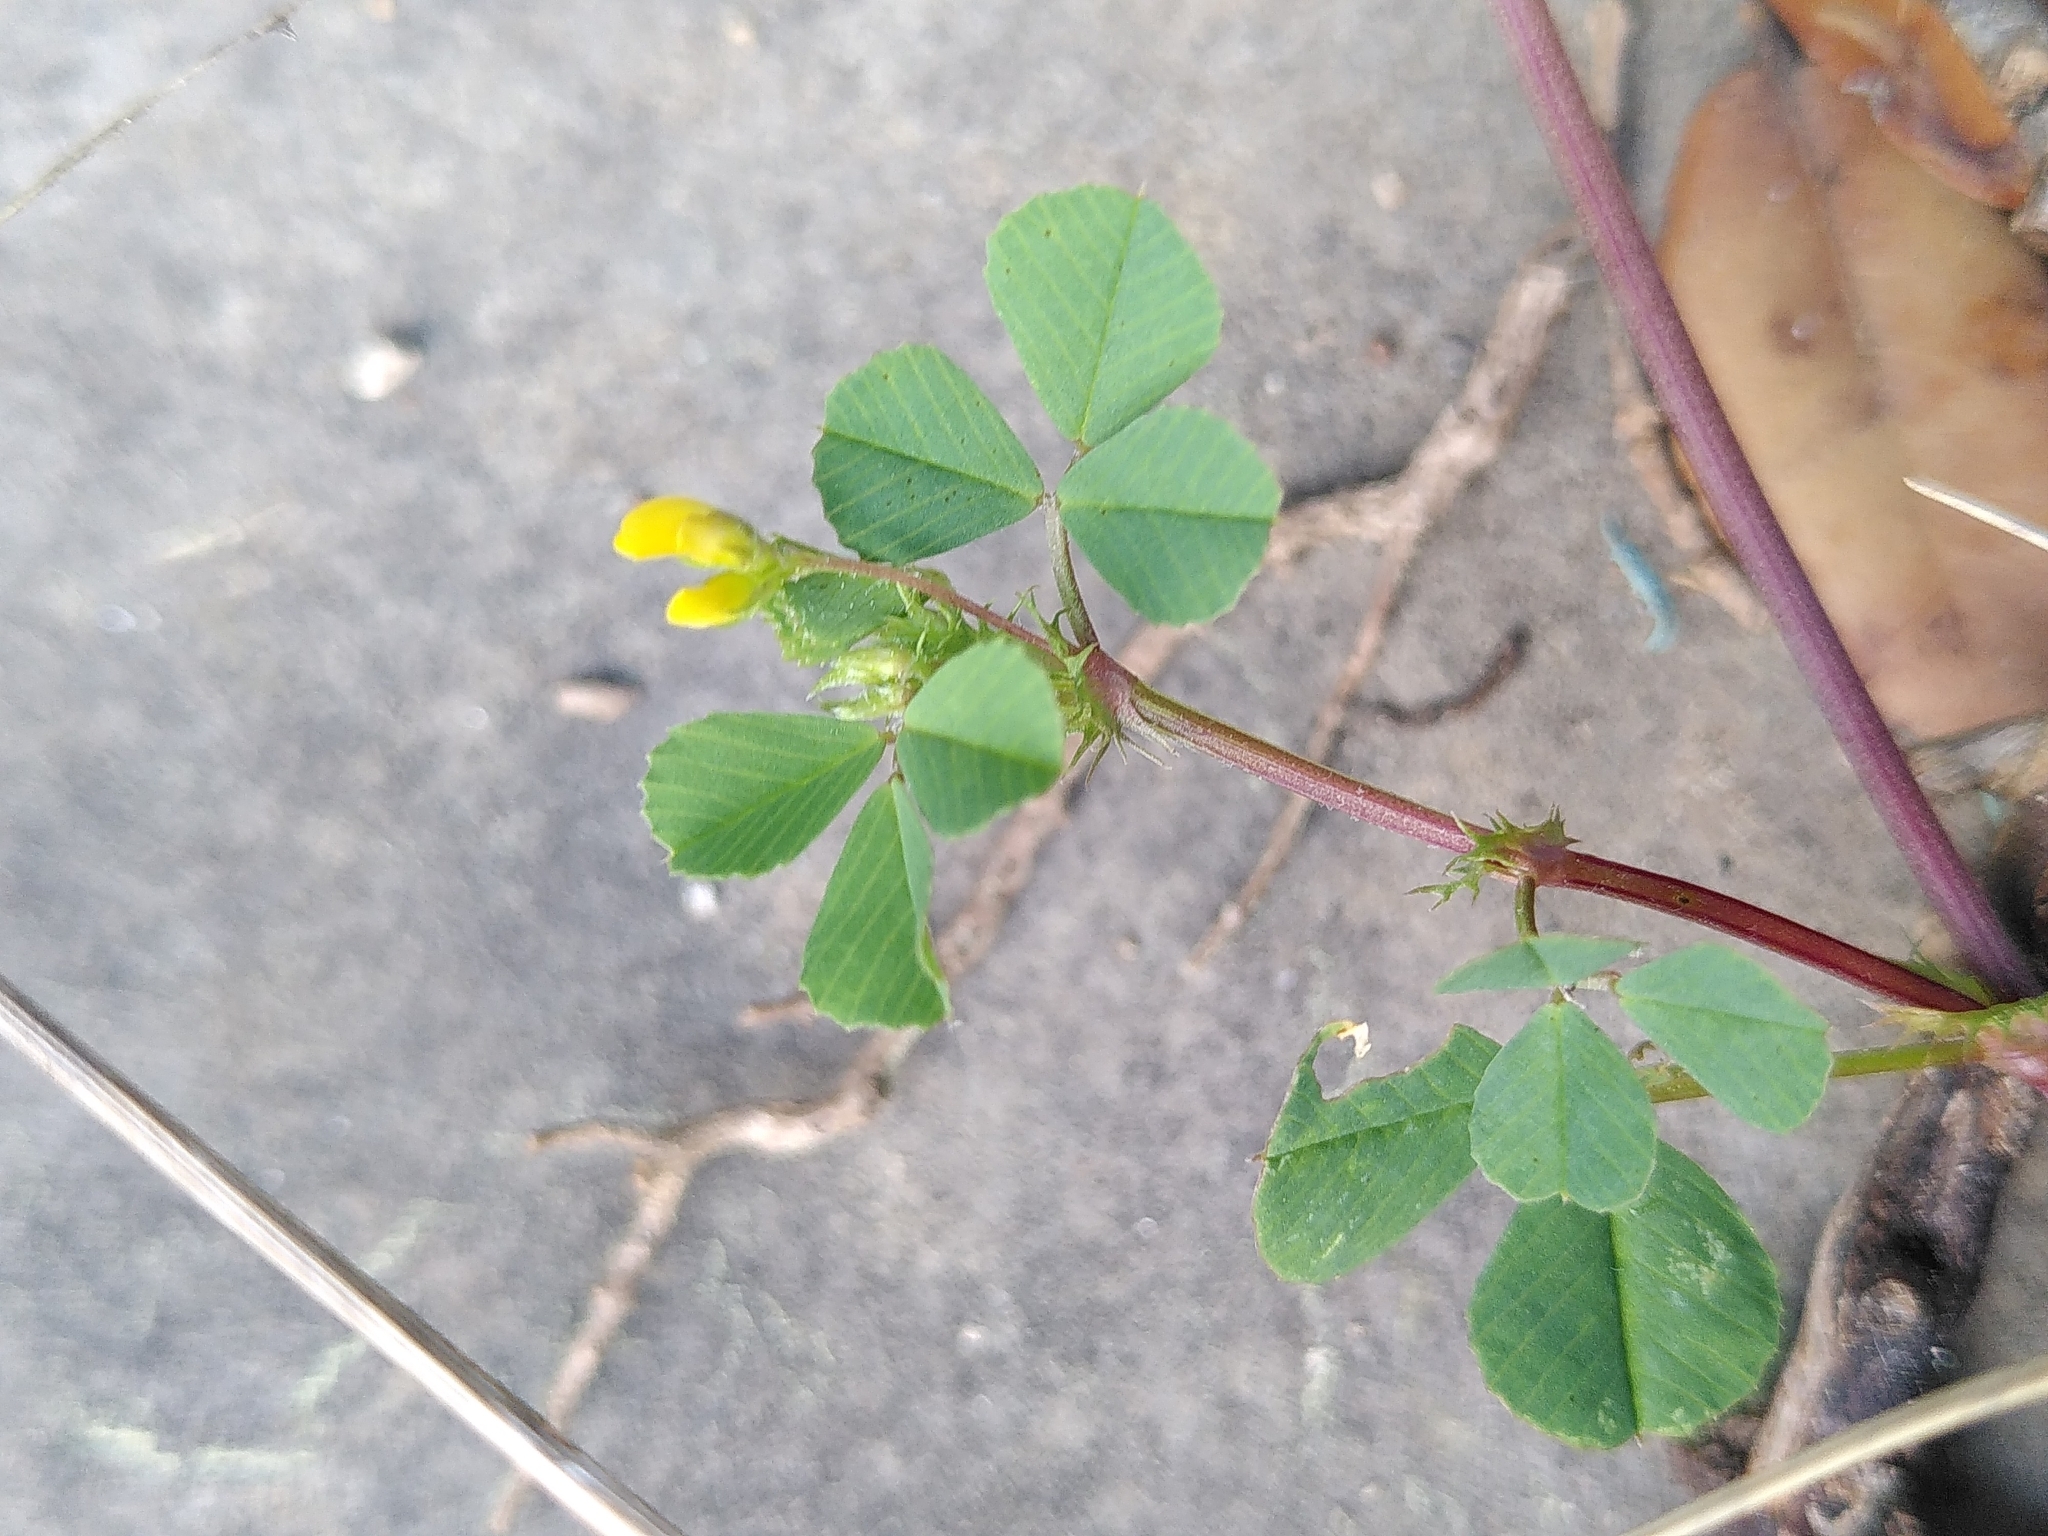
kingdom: Plantae
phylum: Tracheophyta
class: Magnoliopsida
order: Fabales
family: Fabaceae
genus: Medicago
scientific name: Medicago polymorpha
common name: Burclover
